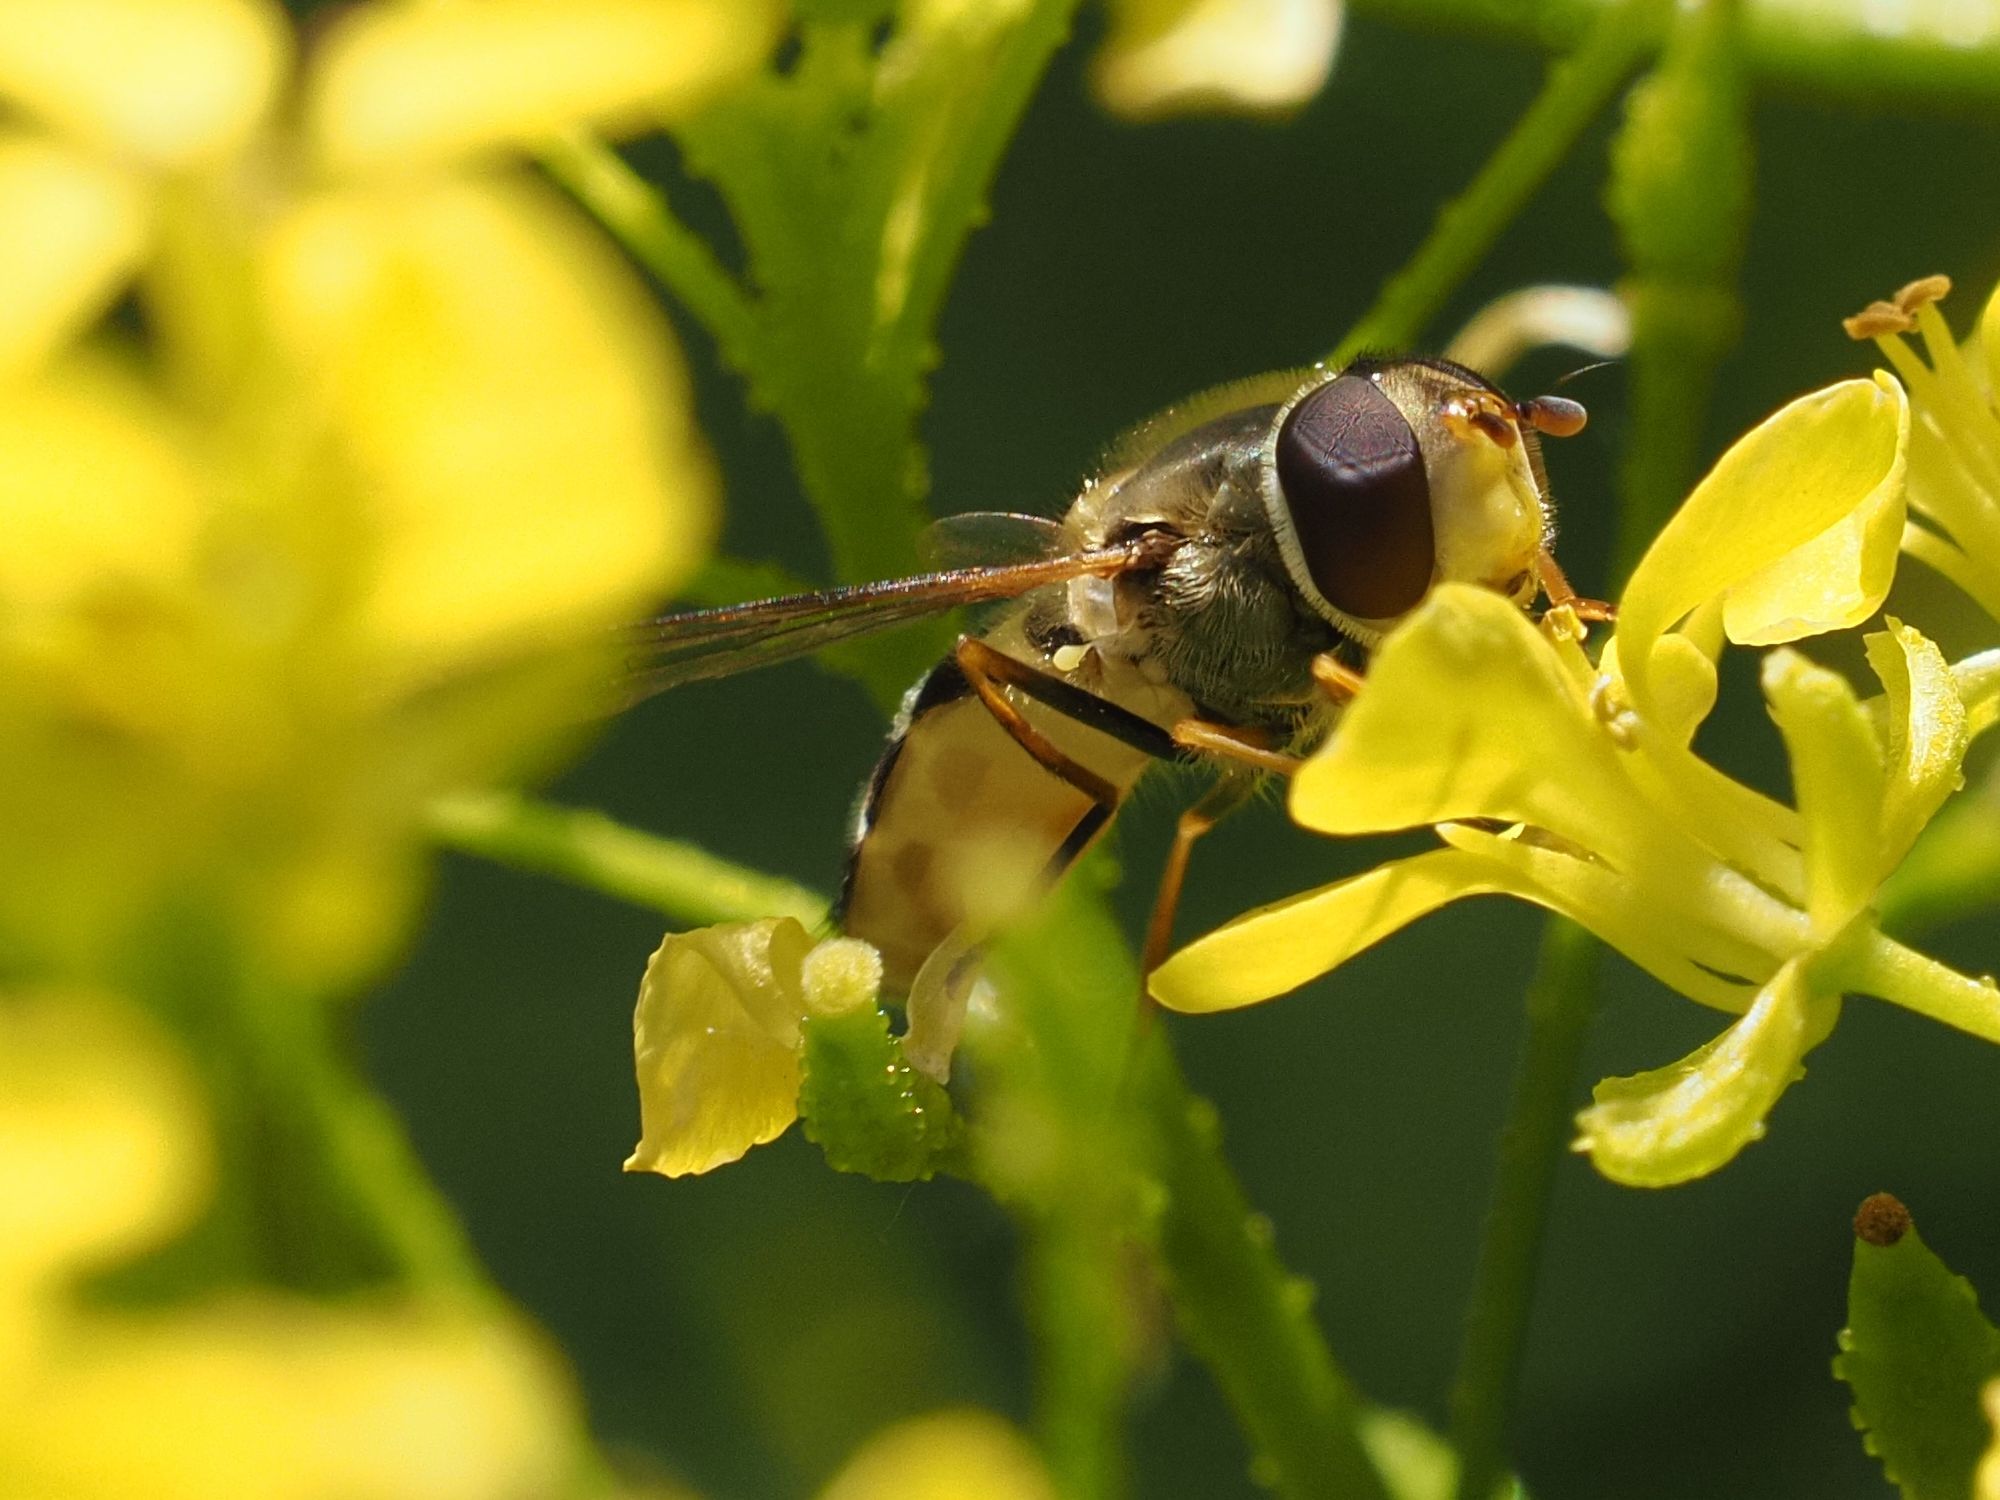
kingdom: Animalia
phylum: Arthropoda
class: Insecta
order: Diptera
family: Syrphidae
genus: Syrphus
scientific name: Syrphus vitripennis
